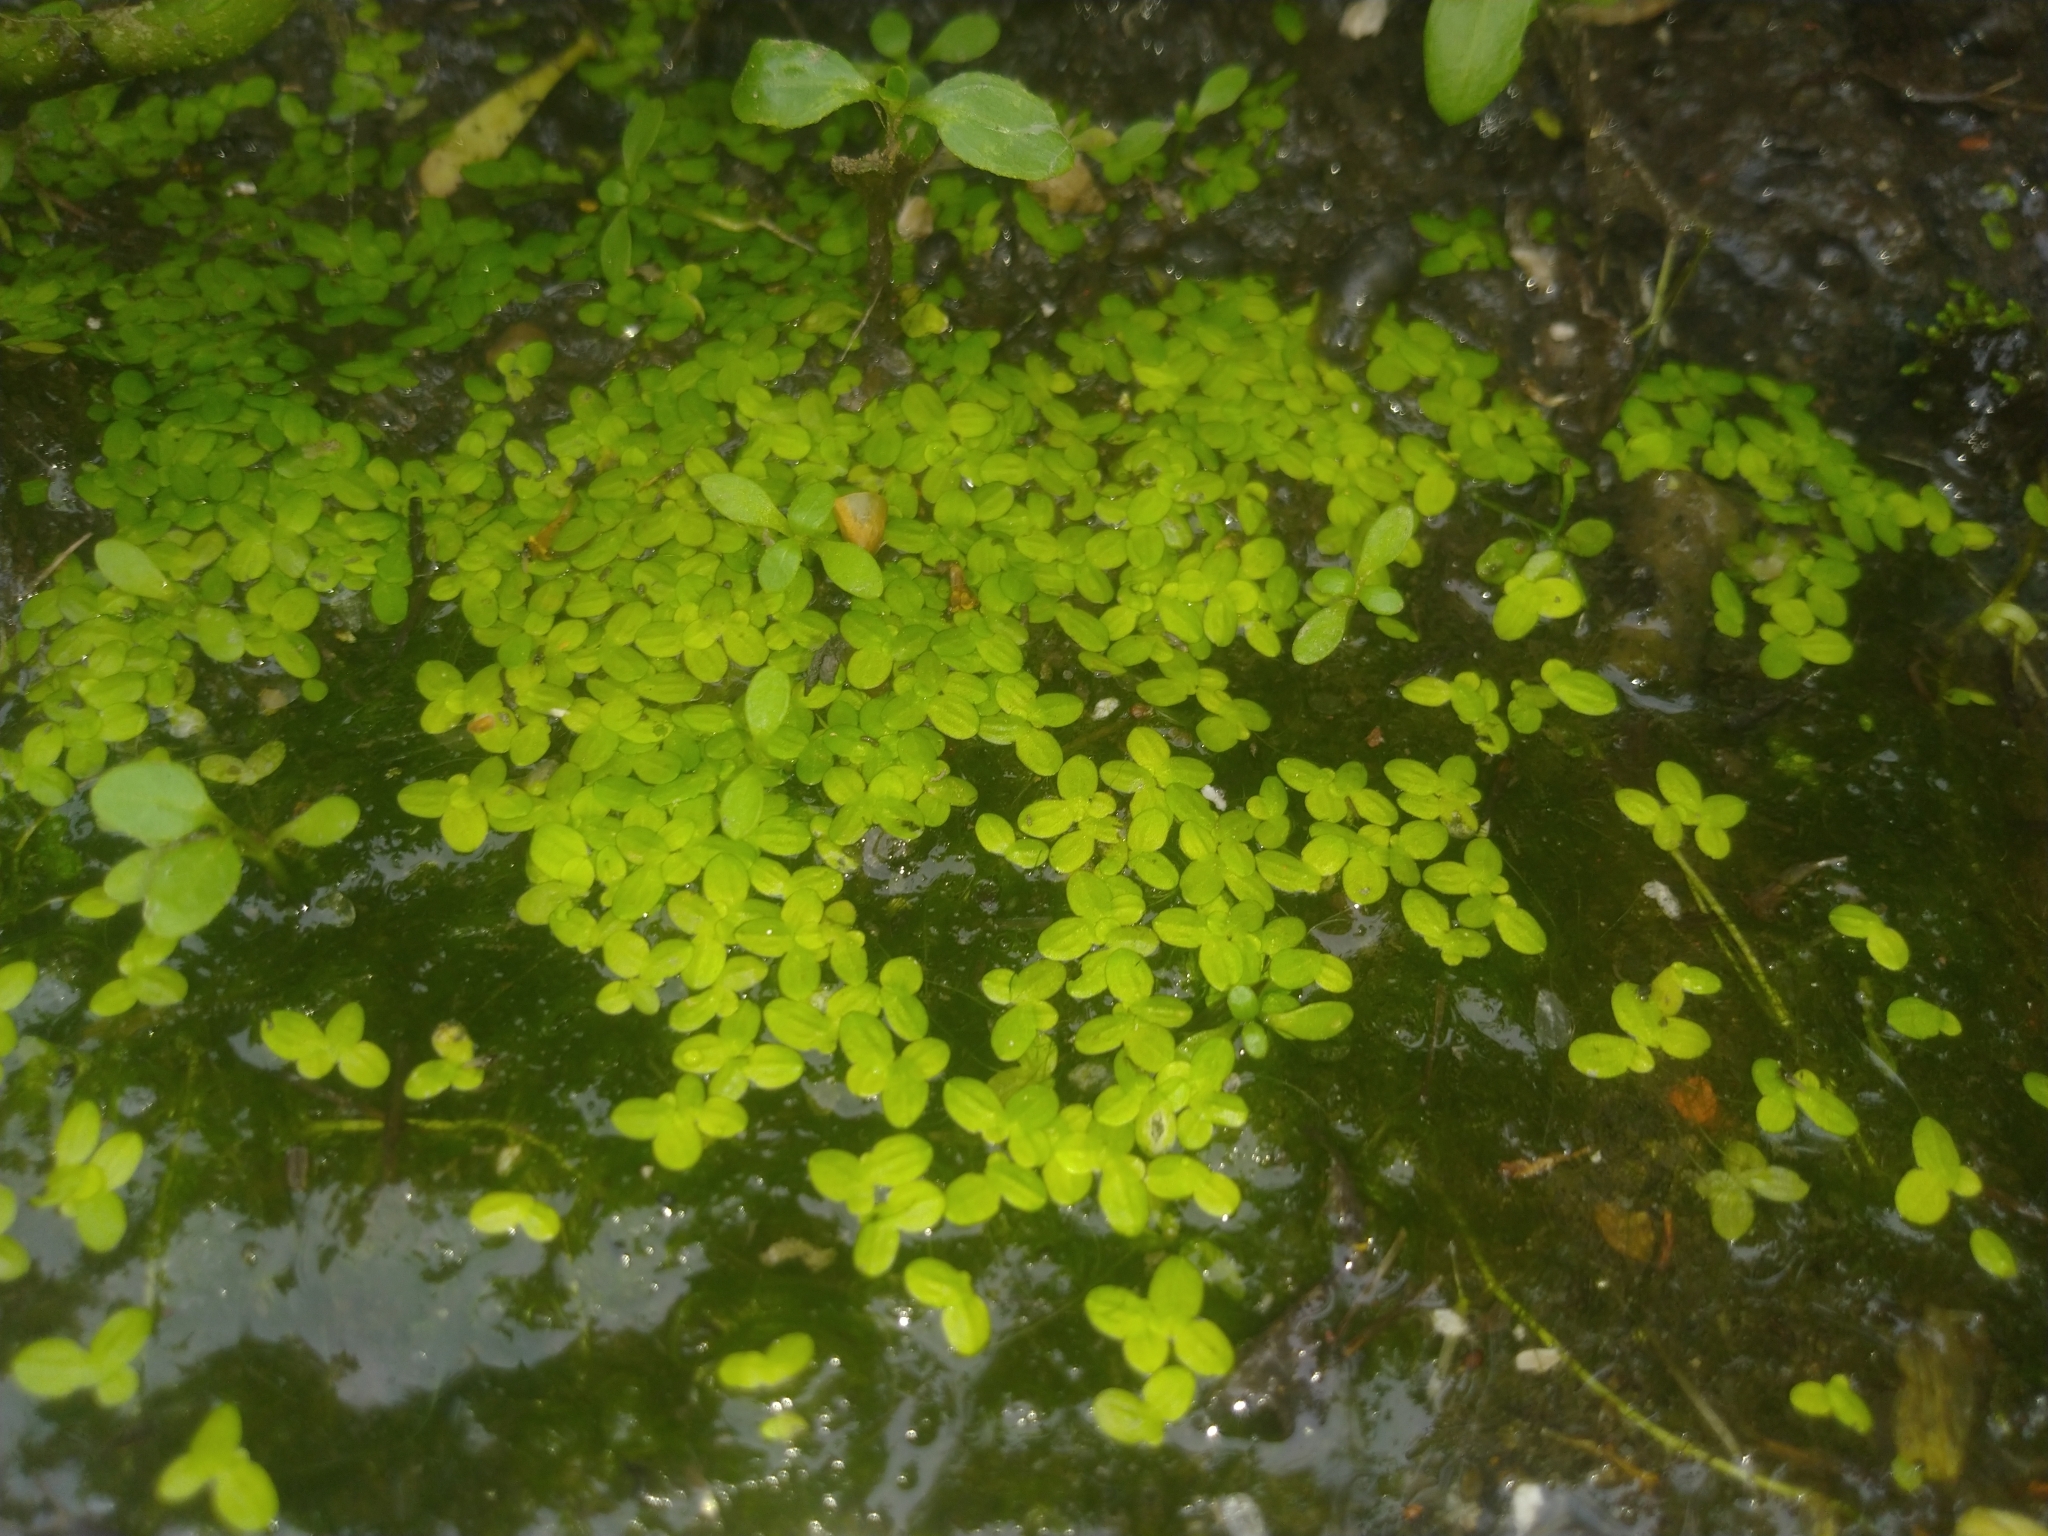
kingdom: Plantae
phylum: Tracheophyta
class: Liliopsida
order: Alismatales
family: Araceae
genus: Lemna
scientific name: Lemna aequinoctialis
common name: Duckweed
